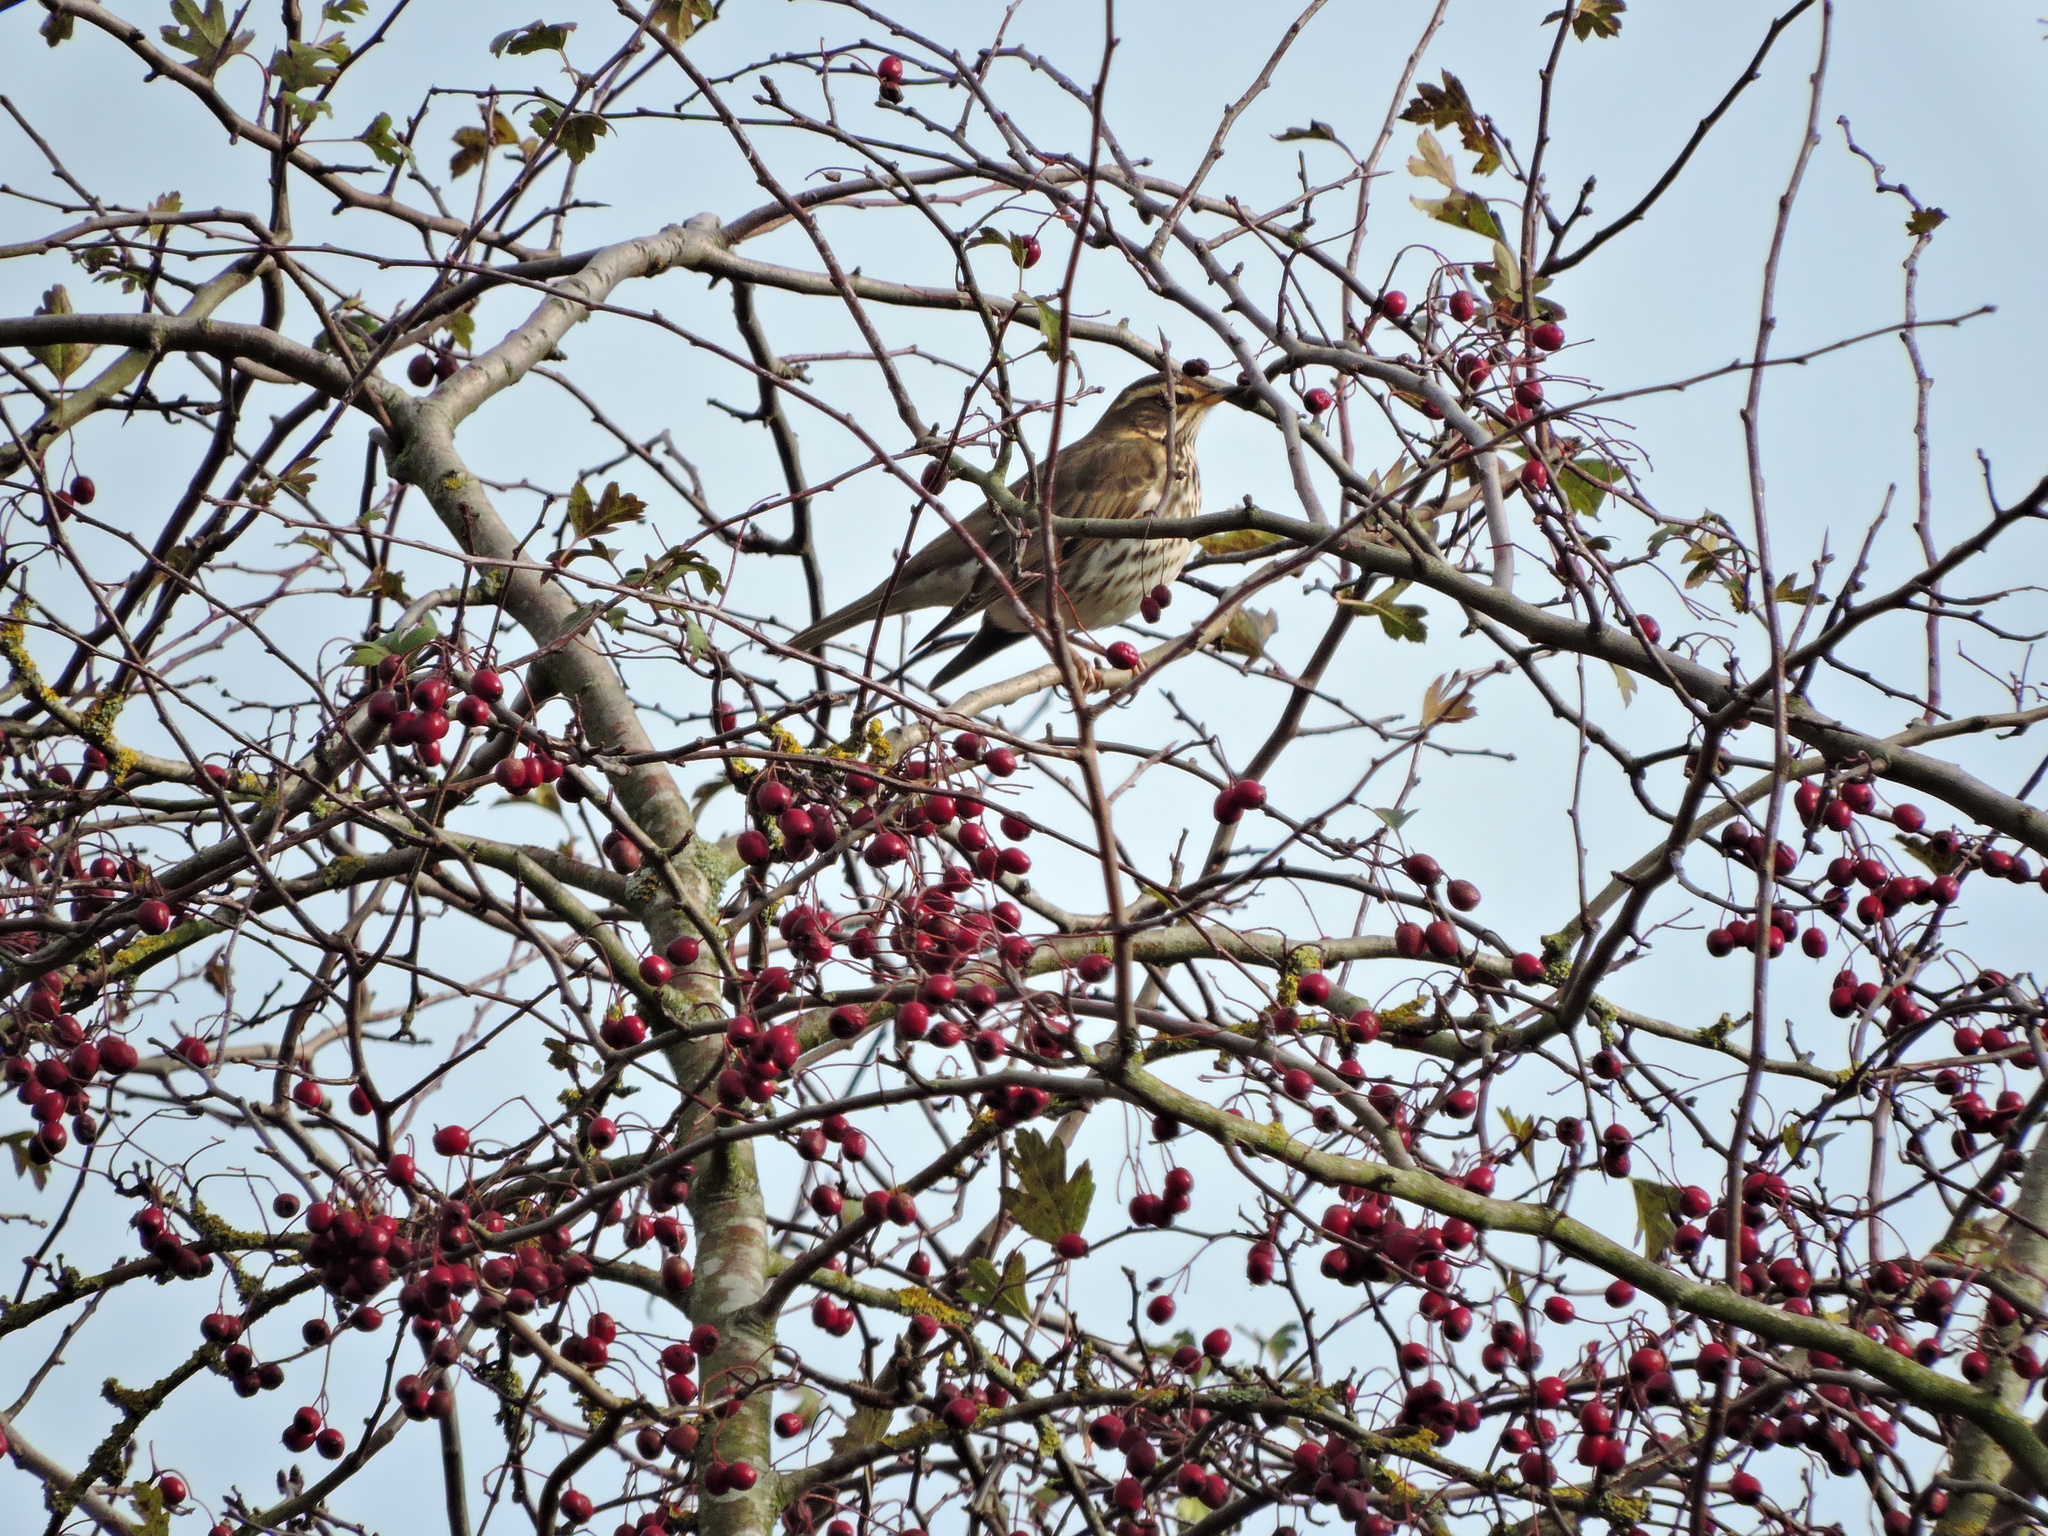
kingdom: Animalia
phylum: Chordata
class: Aves
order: Passeriformes
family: Turdidae
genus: Turdus
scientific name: Turdus iliacus
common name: Redwing
